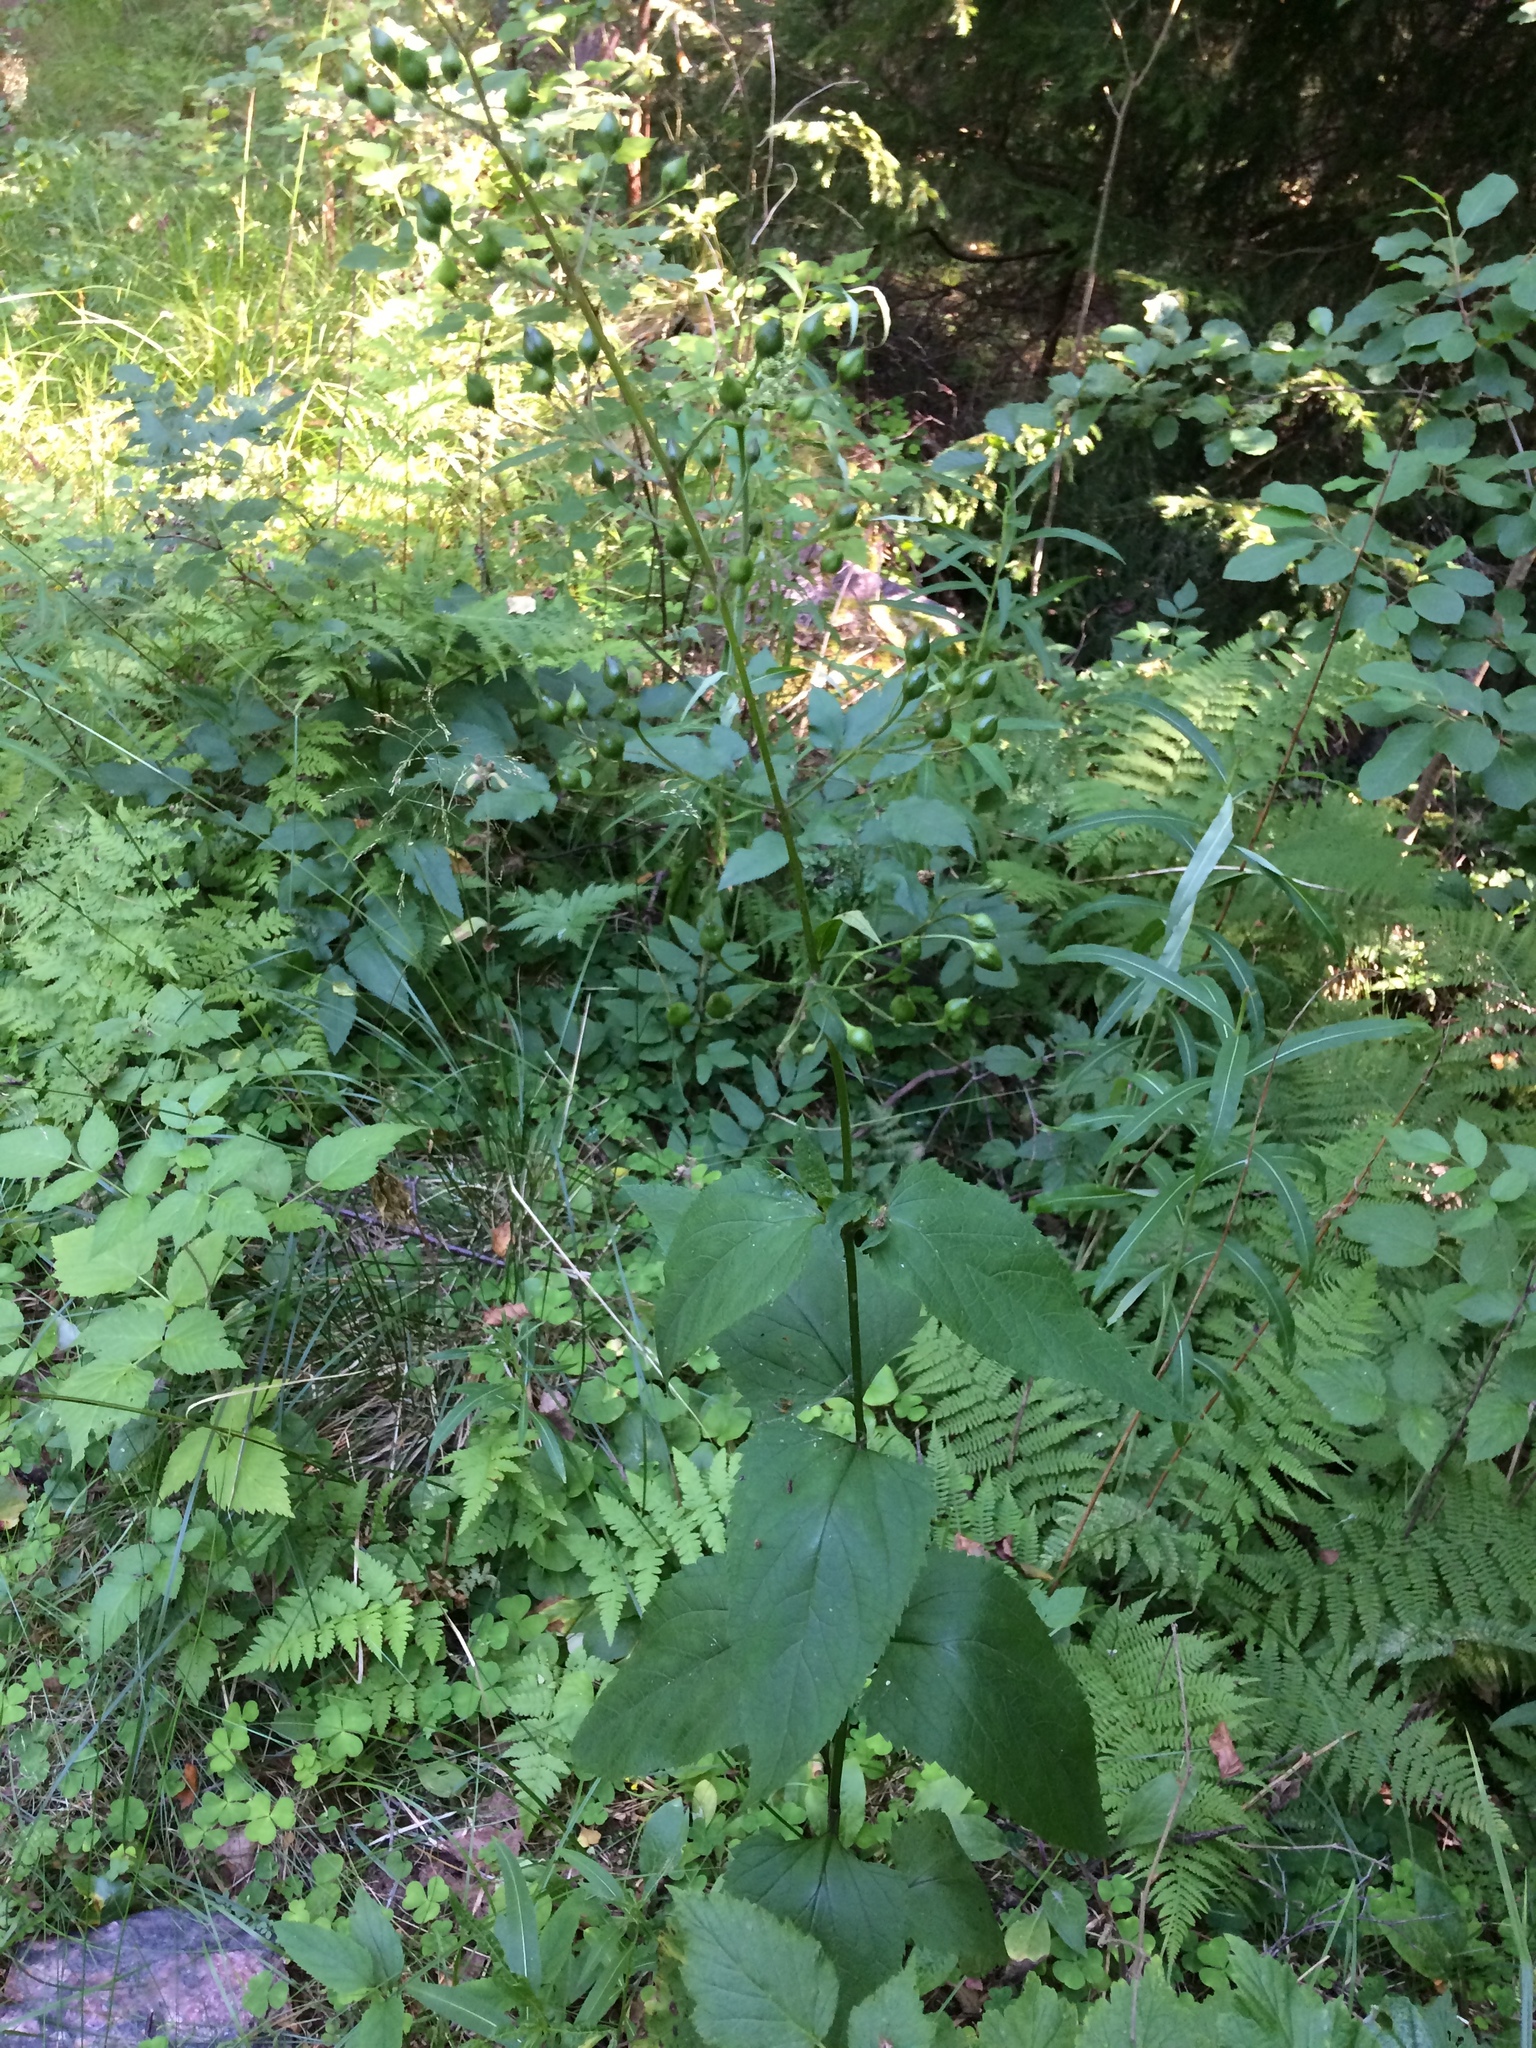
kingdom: Plantae
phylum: Tracheophyta
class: Magnoliopsida
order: Lamiales
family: Scrophulariaceae
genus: Scrophularia
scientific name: Scrophularia nodosa
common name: Common figwort
